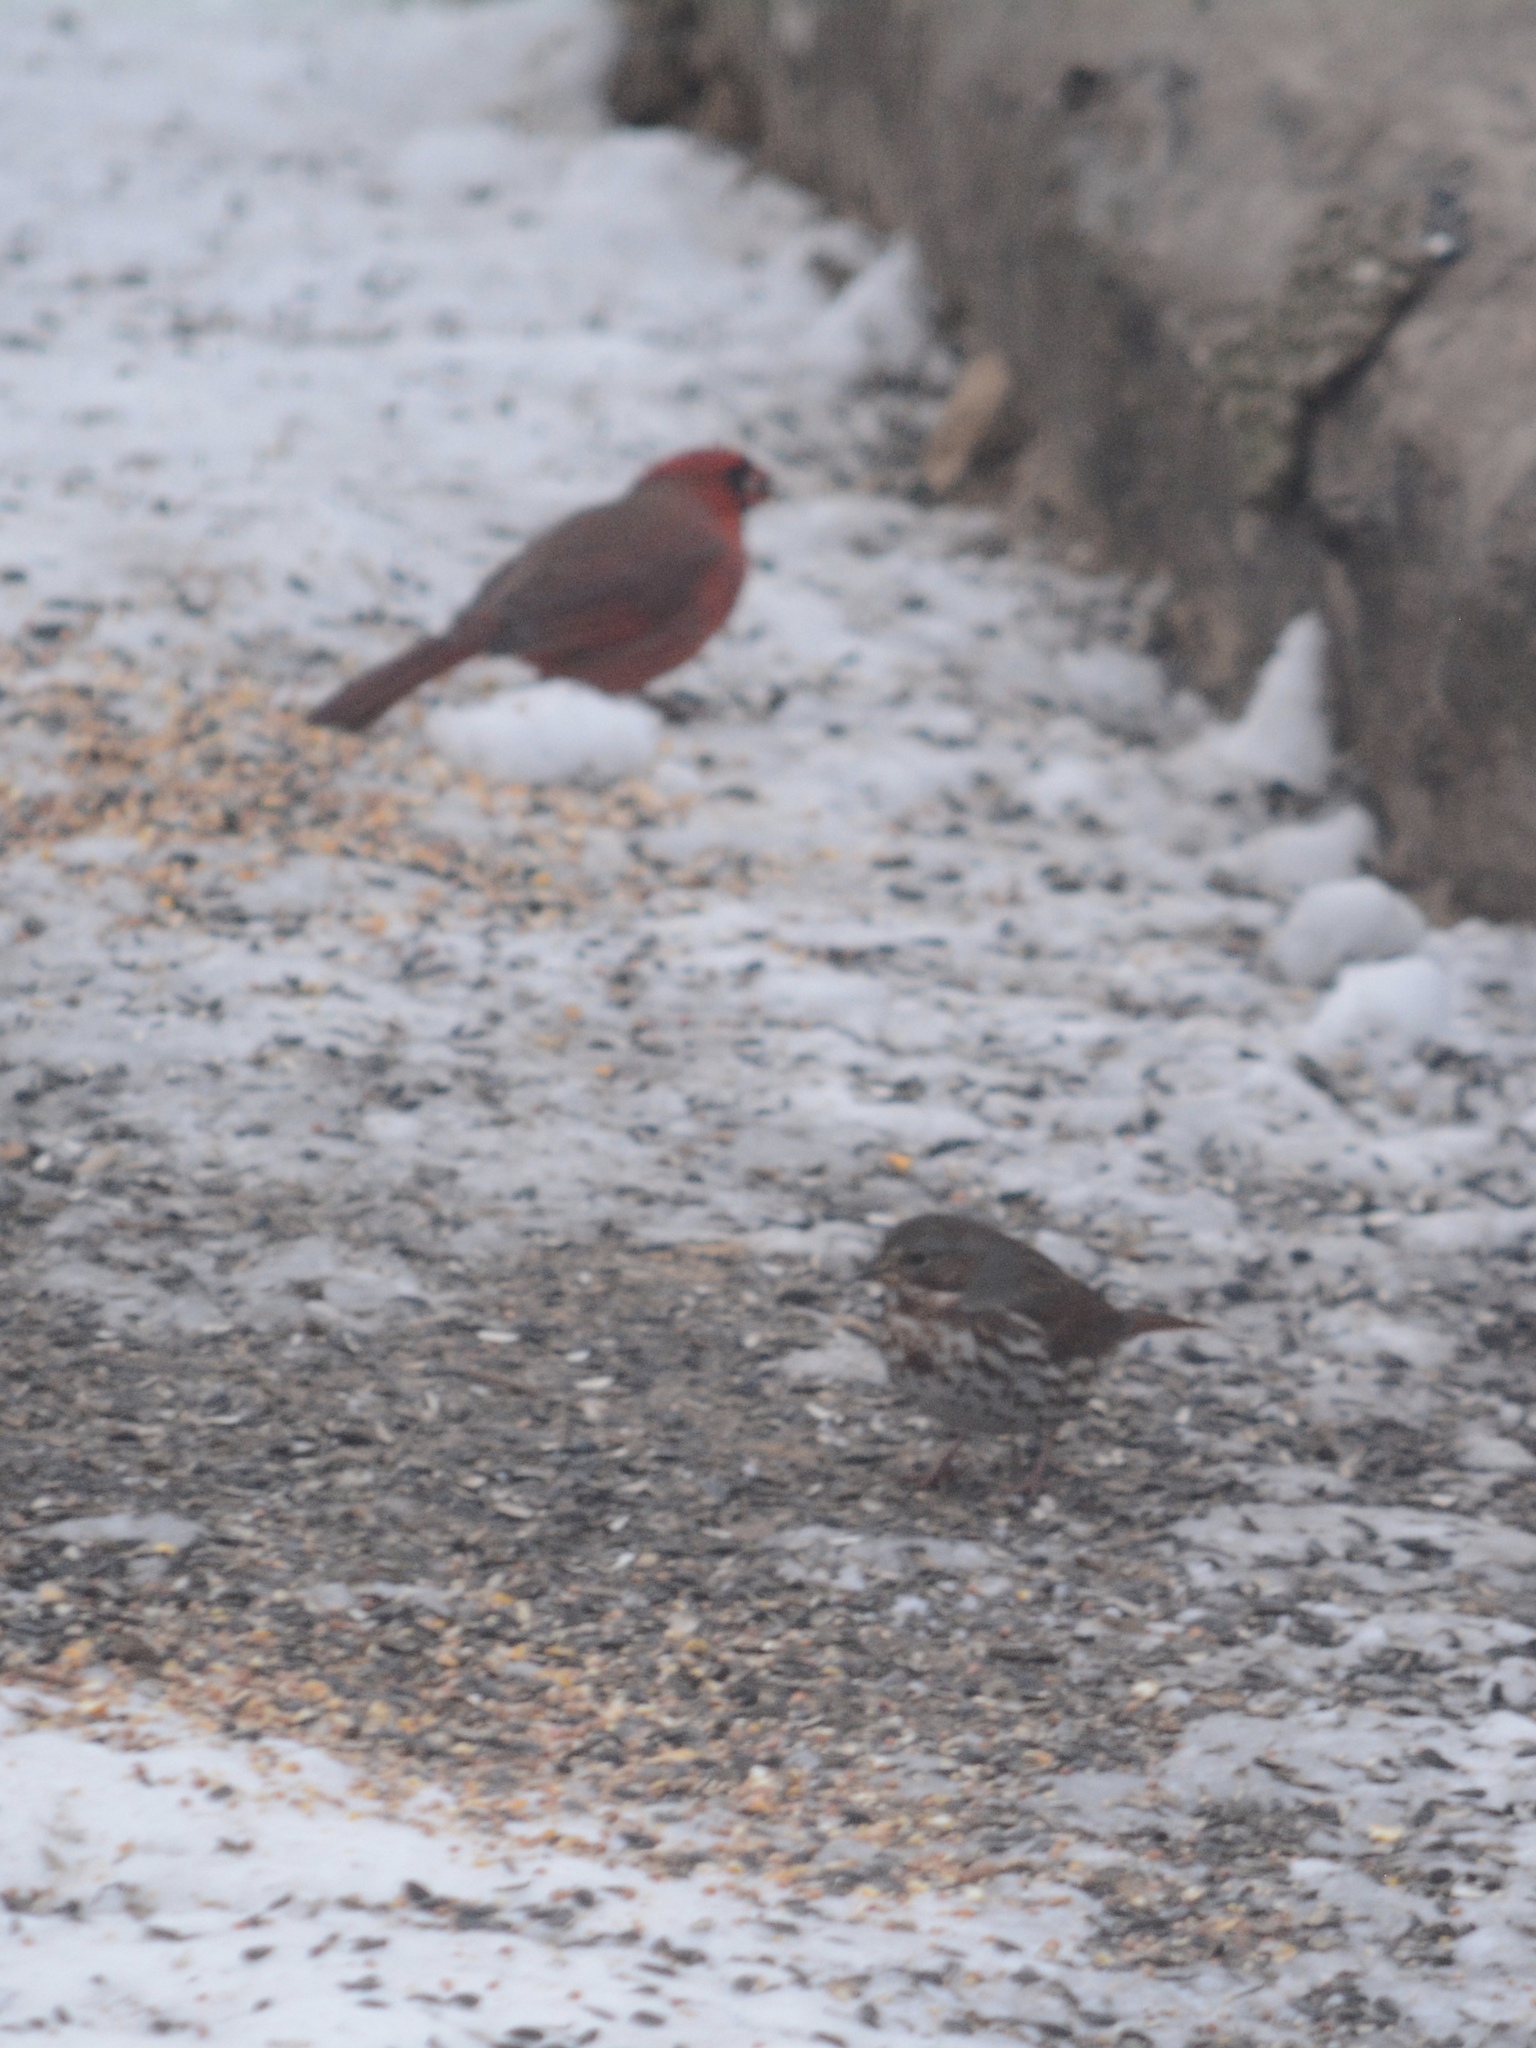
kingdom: Animalia
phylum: Chordata
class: Aves
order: Passeriformes
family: Passerellidae
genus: Passerella
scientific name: Passerella iliaca
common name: Fox sparrow
